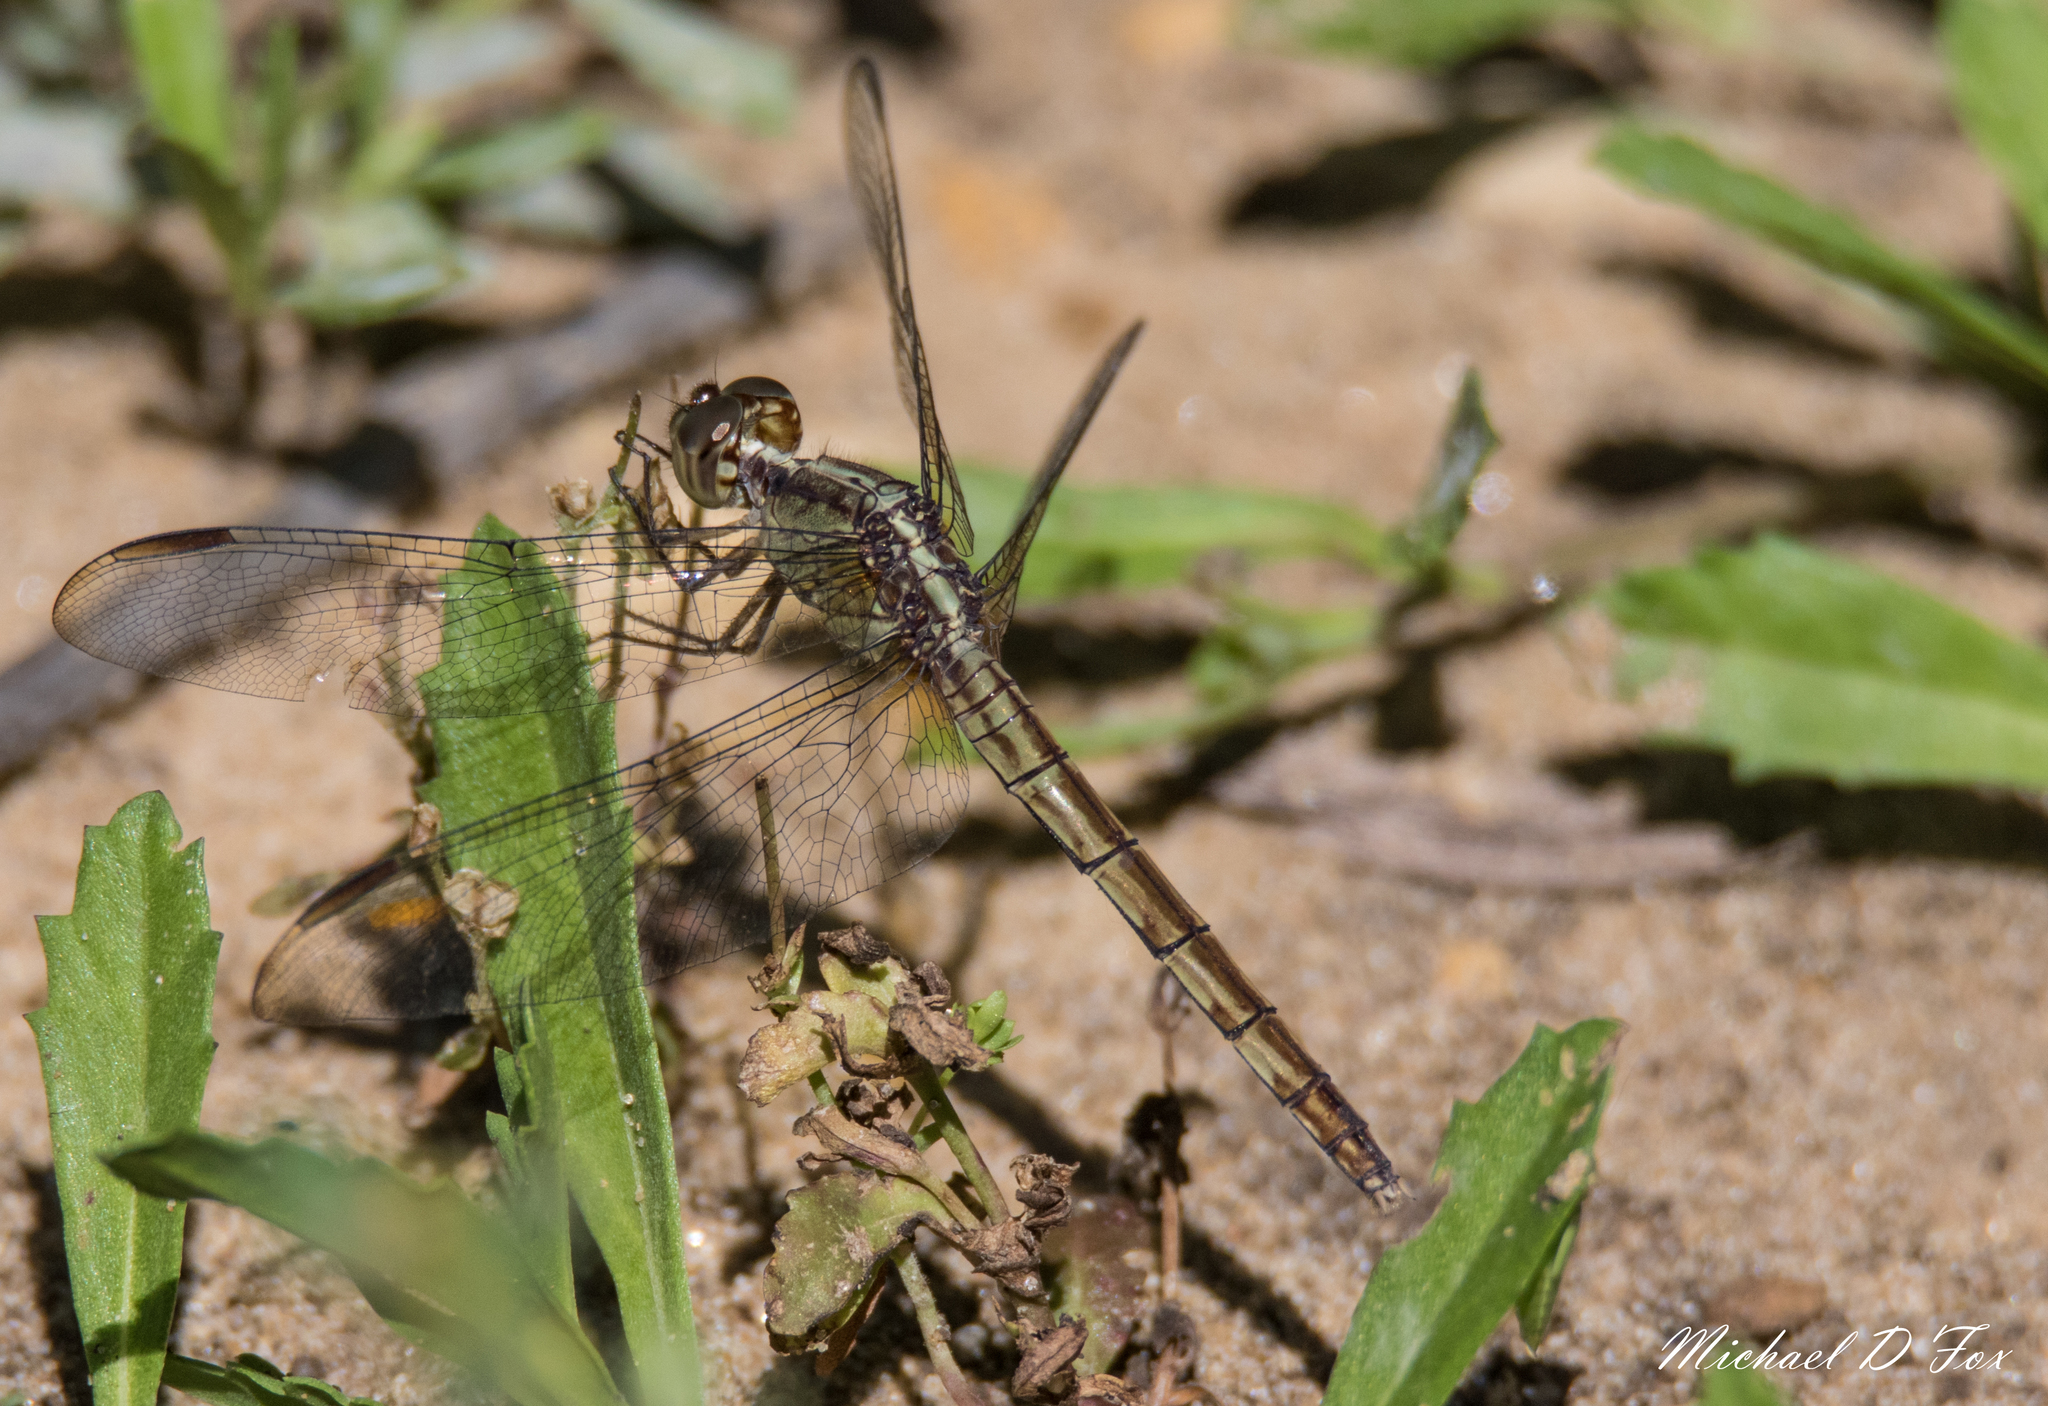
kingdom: Animalia
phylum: Arthropoda
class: Insecta
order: Odonata
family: Libellulidae
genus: Erythrodiplax
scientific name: Erythrodiplax umbrata
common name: Band-winged dragonlet
